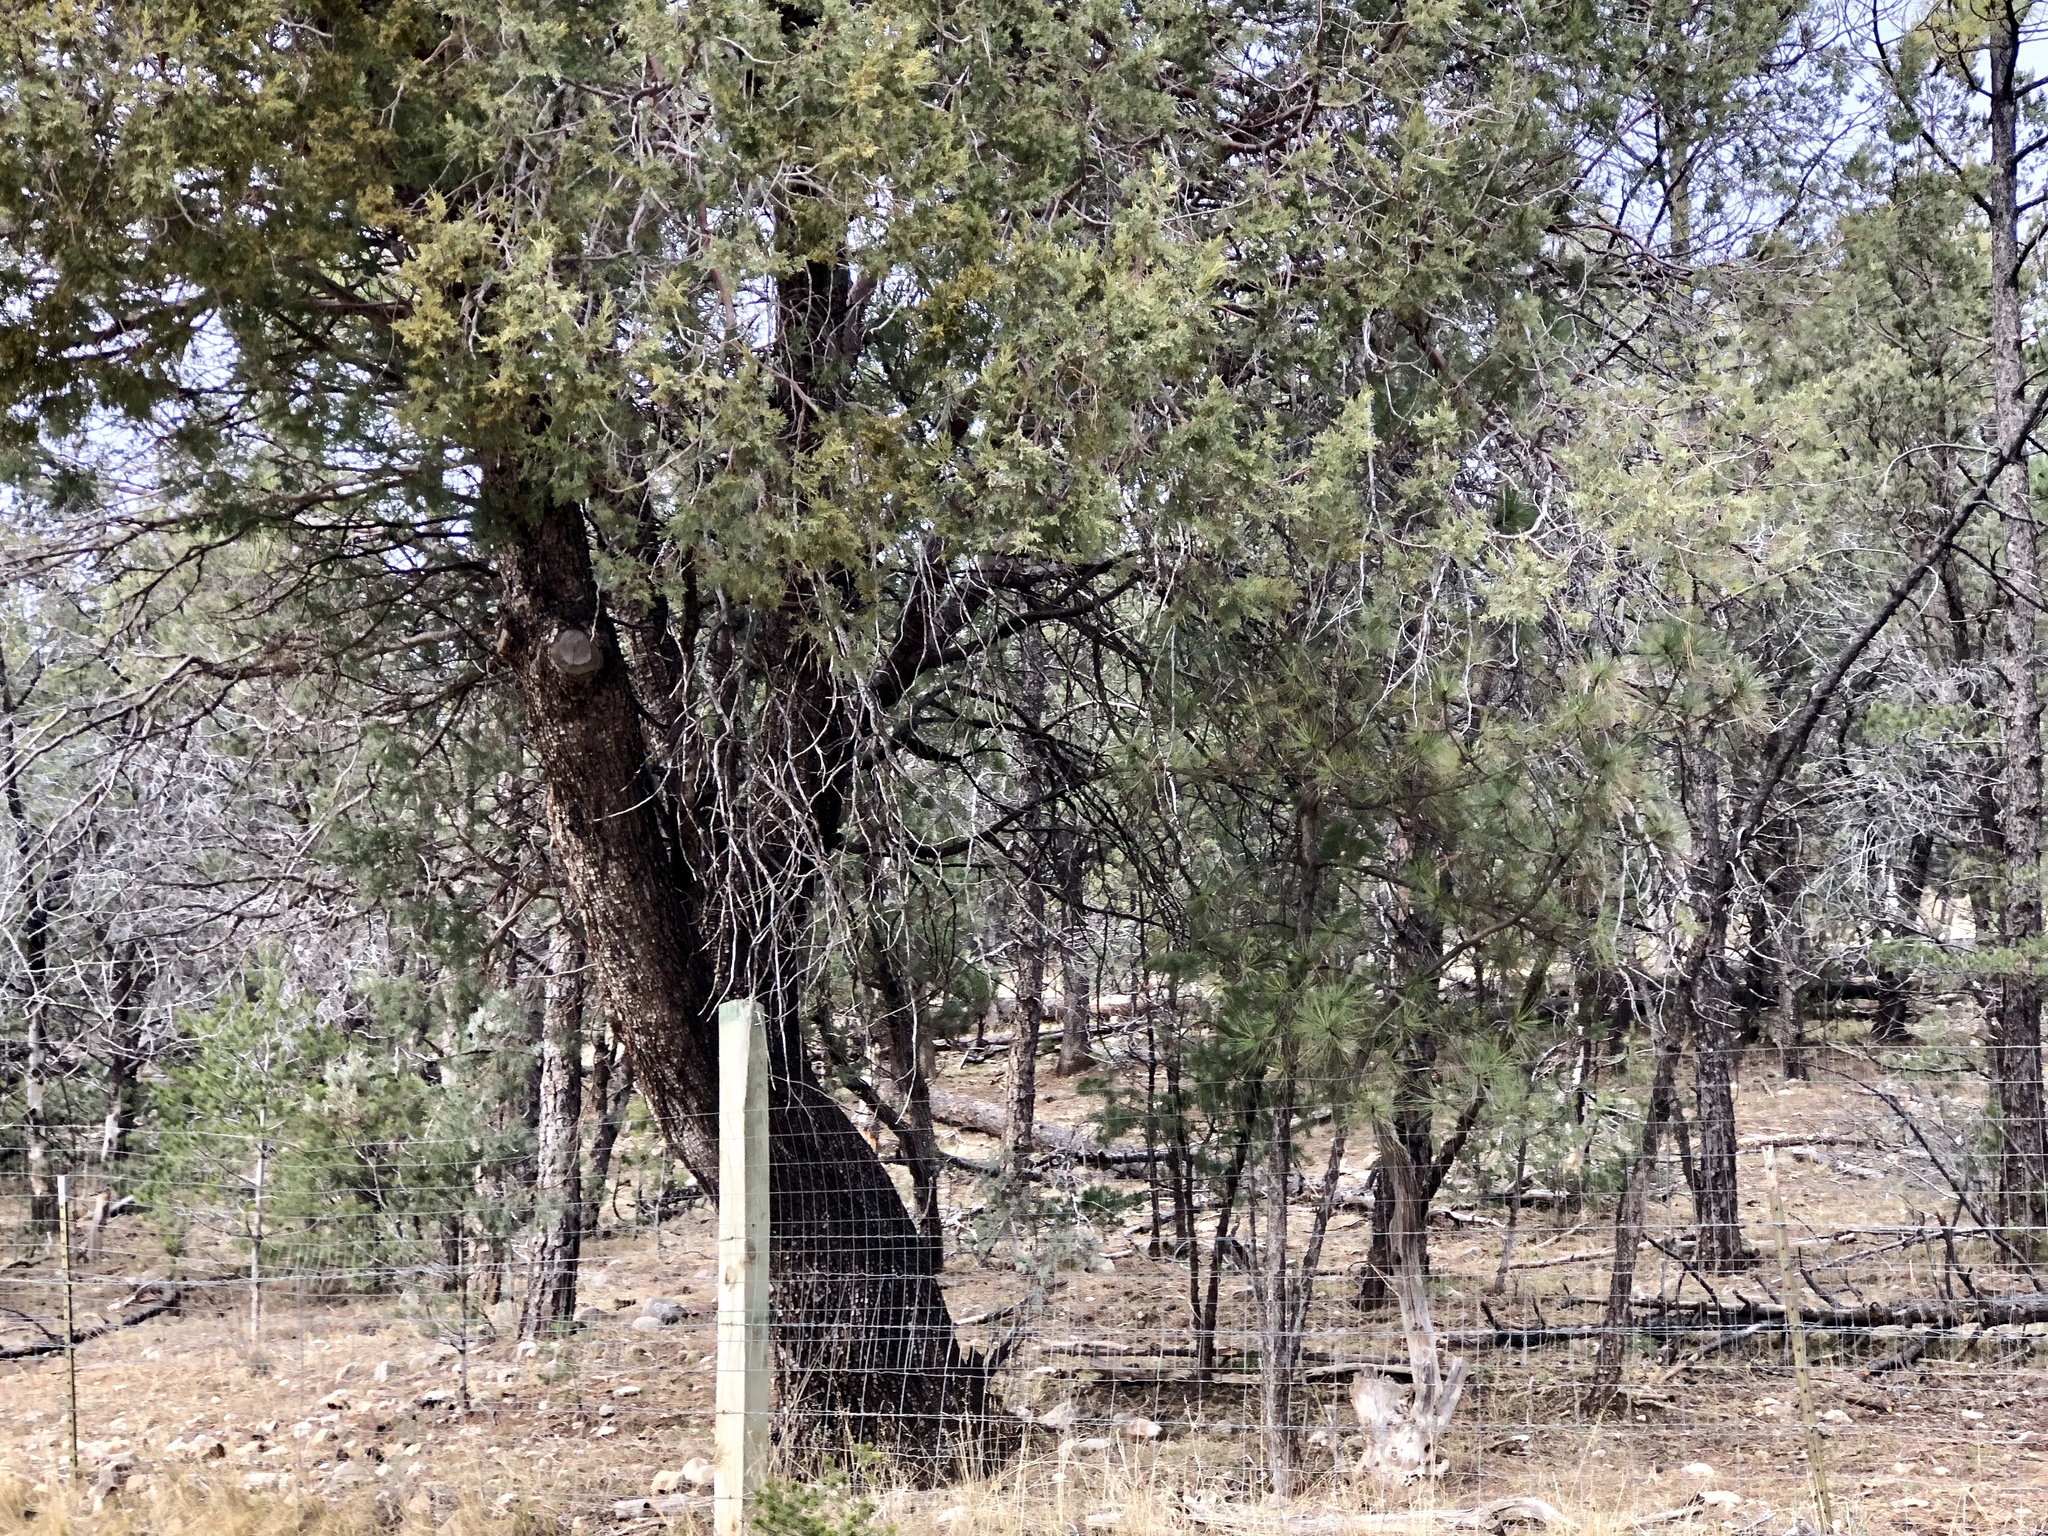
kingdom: Plantae
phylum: Tracheophyta
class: Pinopsida
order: Pinales
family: Cupressaceae
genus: Juniperus
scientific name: Juniperus deppeana
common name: Alligator juniper
